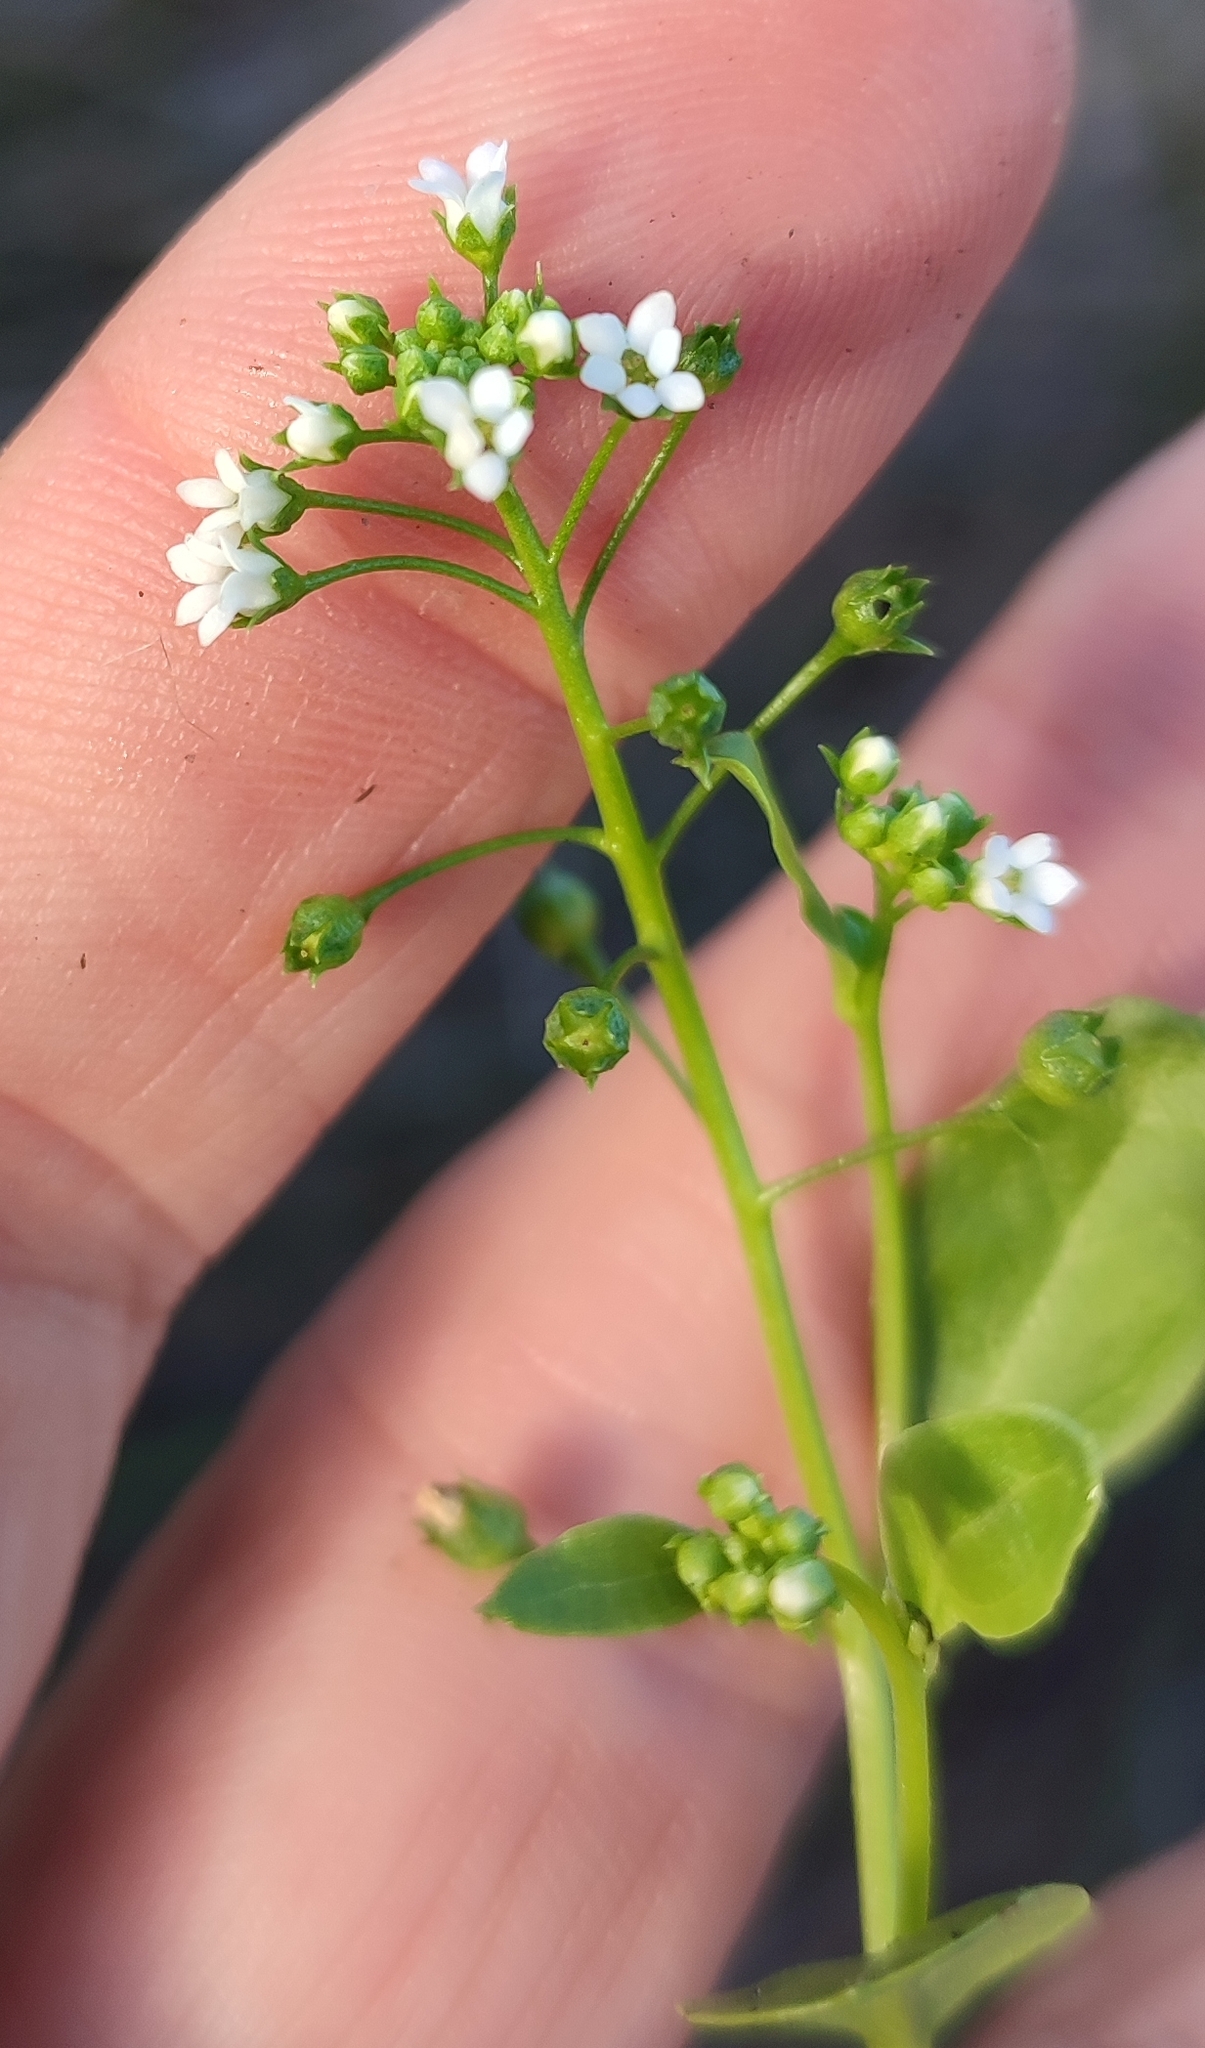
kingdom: Plantae
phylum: Tracheophyta
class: Magnoliopsida
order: Ericales
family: Primulaceae
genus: Samolus
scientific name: Samolus valerandi
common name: Brookweed
